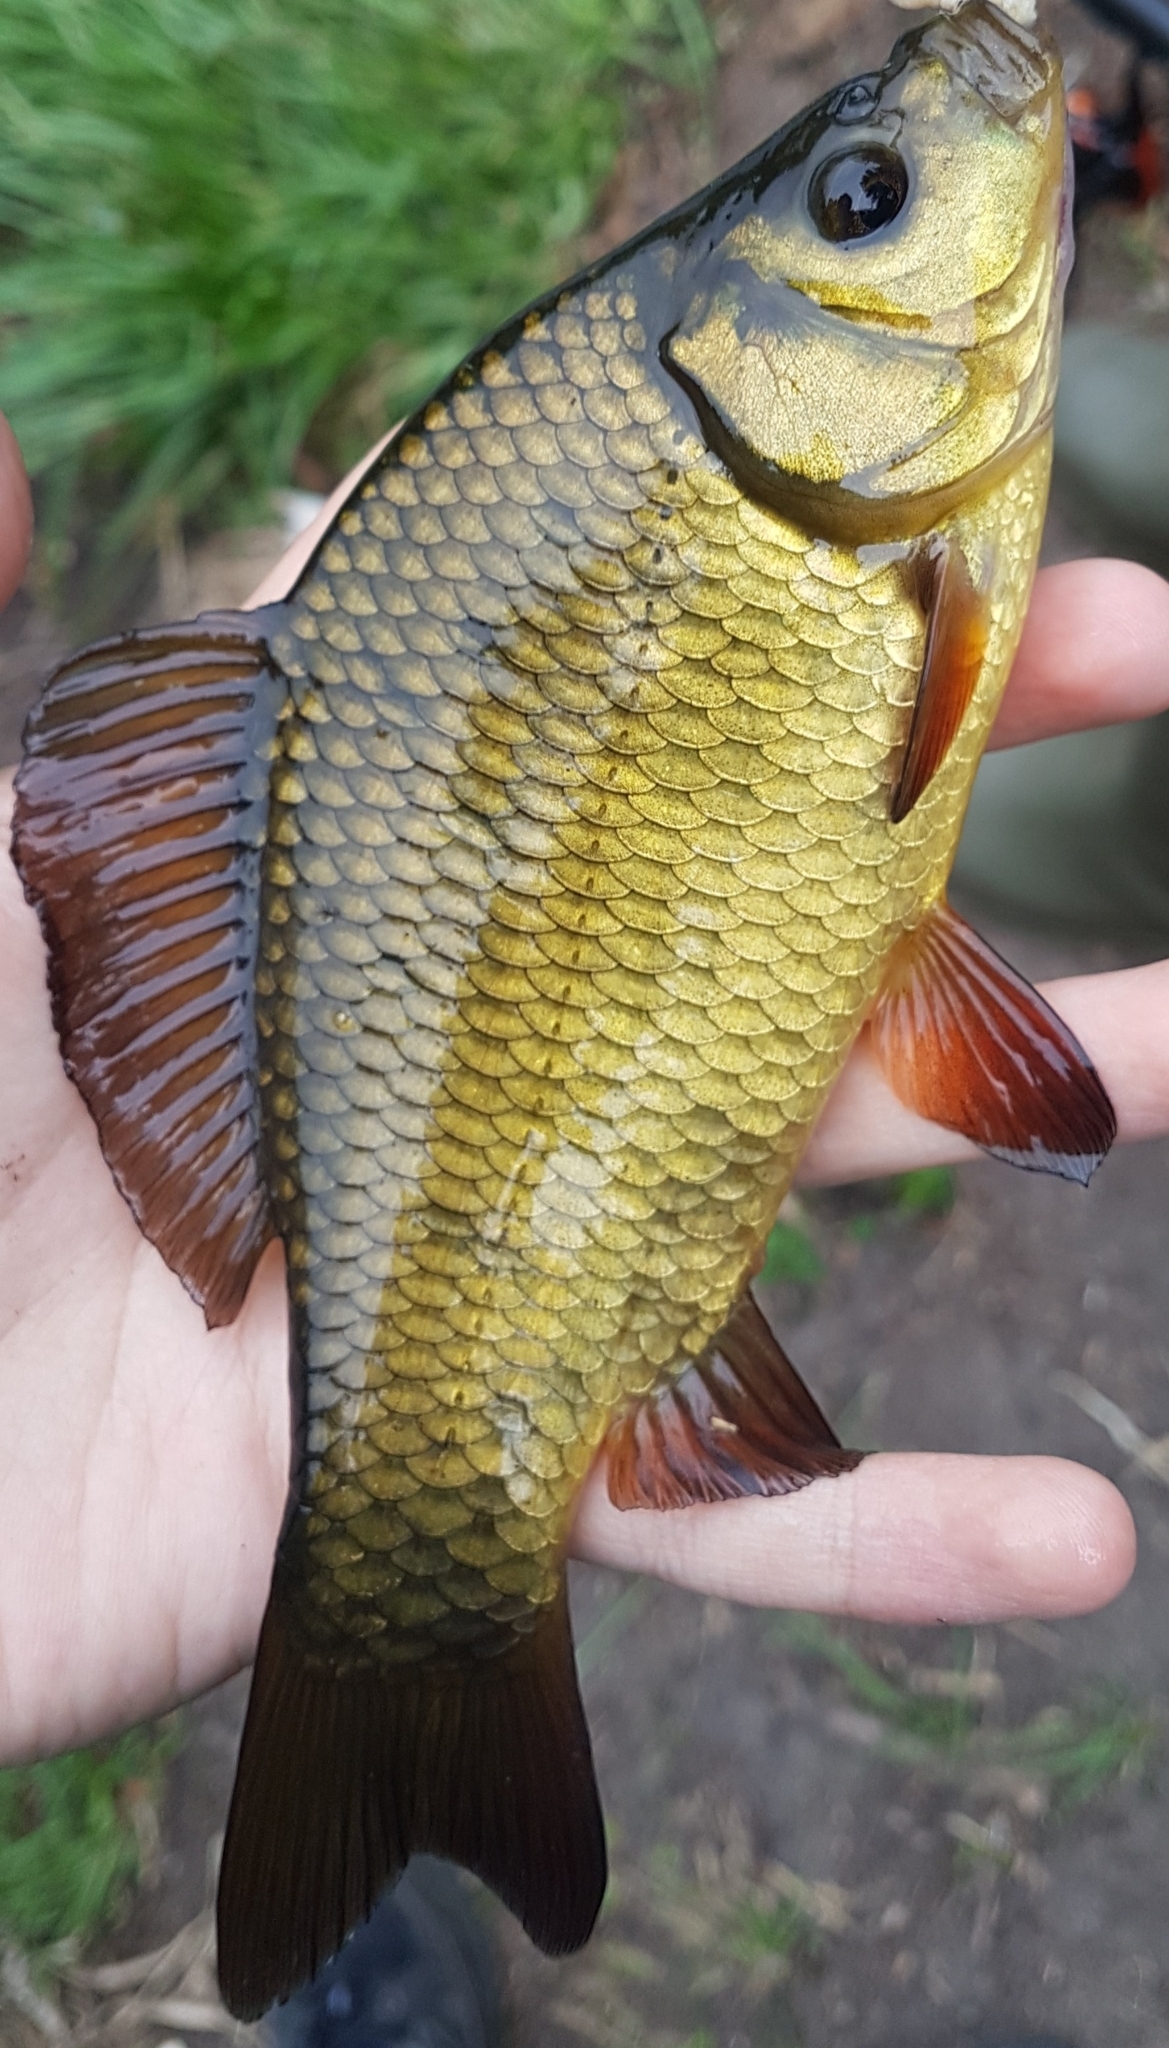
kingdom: Animalia
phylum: Chordata
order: Cypriniformes
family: Cyprinidae
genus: Carassius
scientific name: Carassius carassius
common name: Crucian carp
